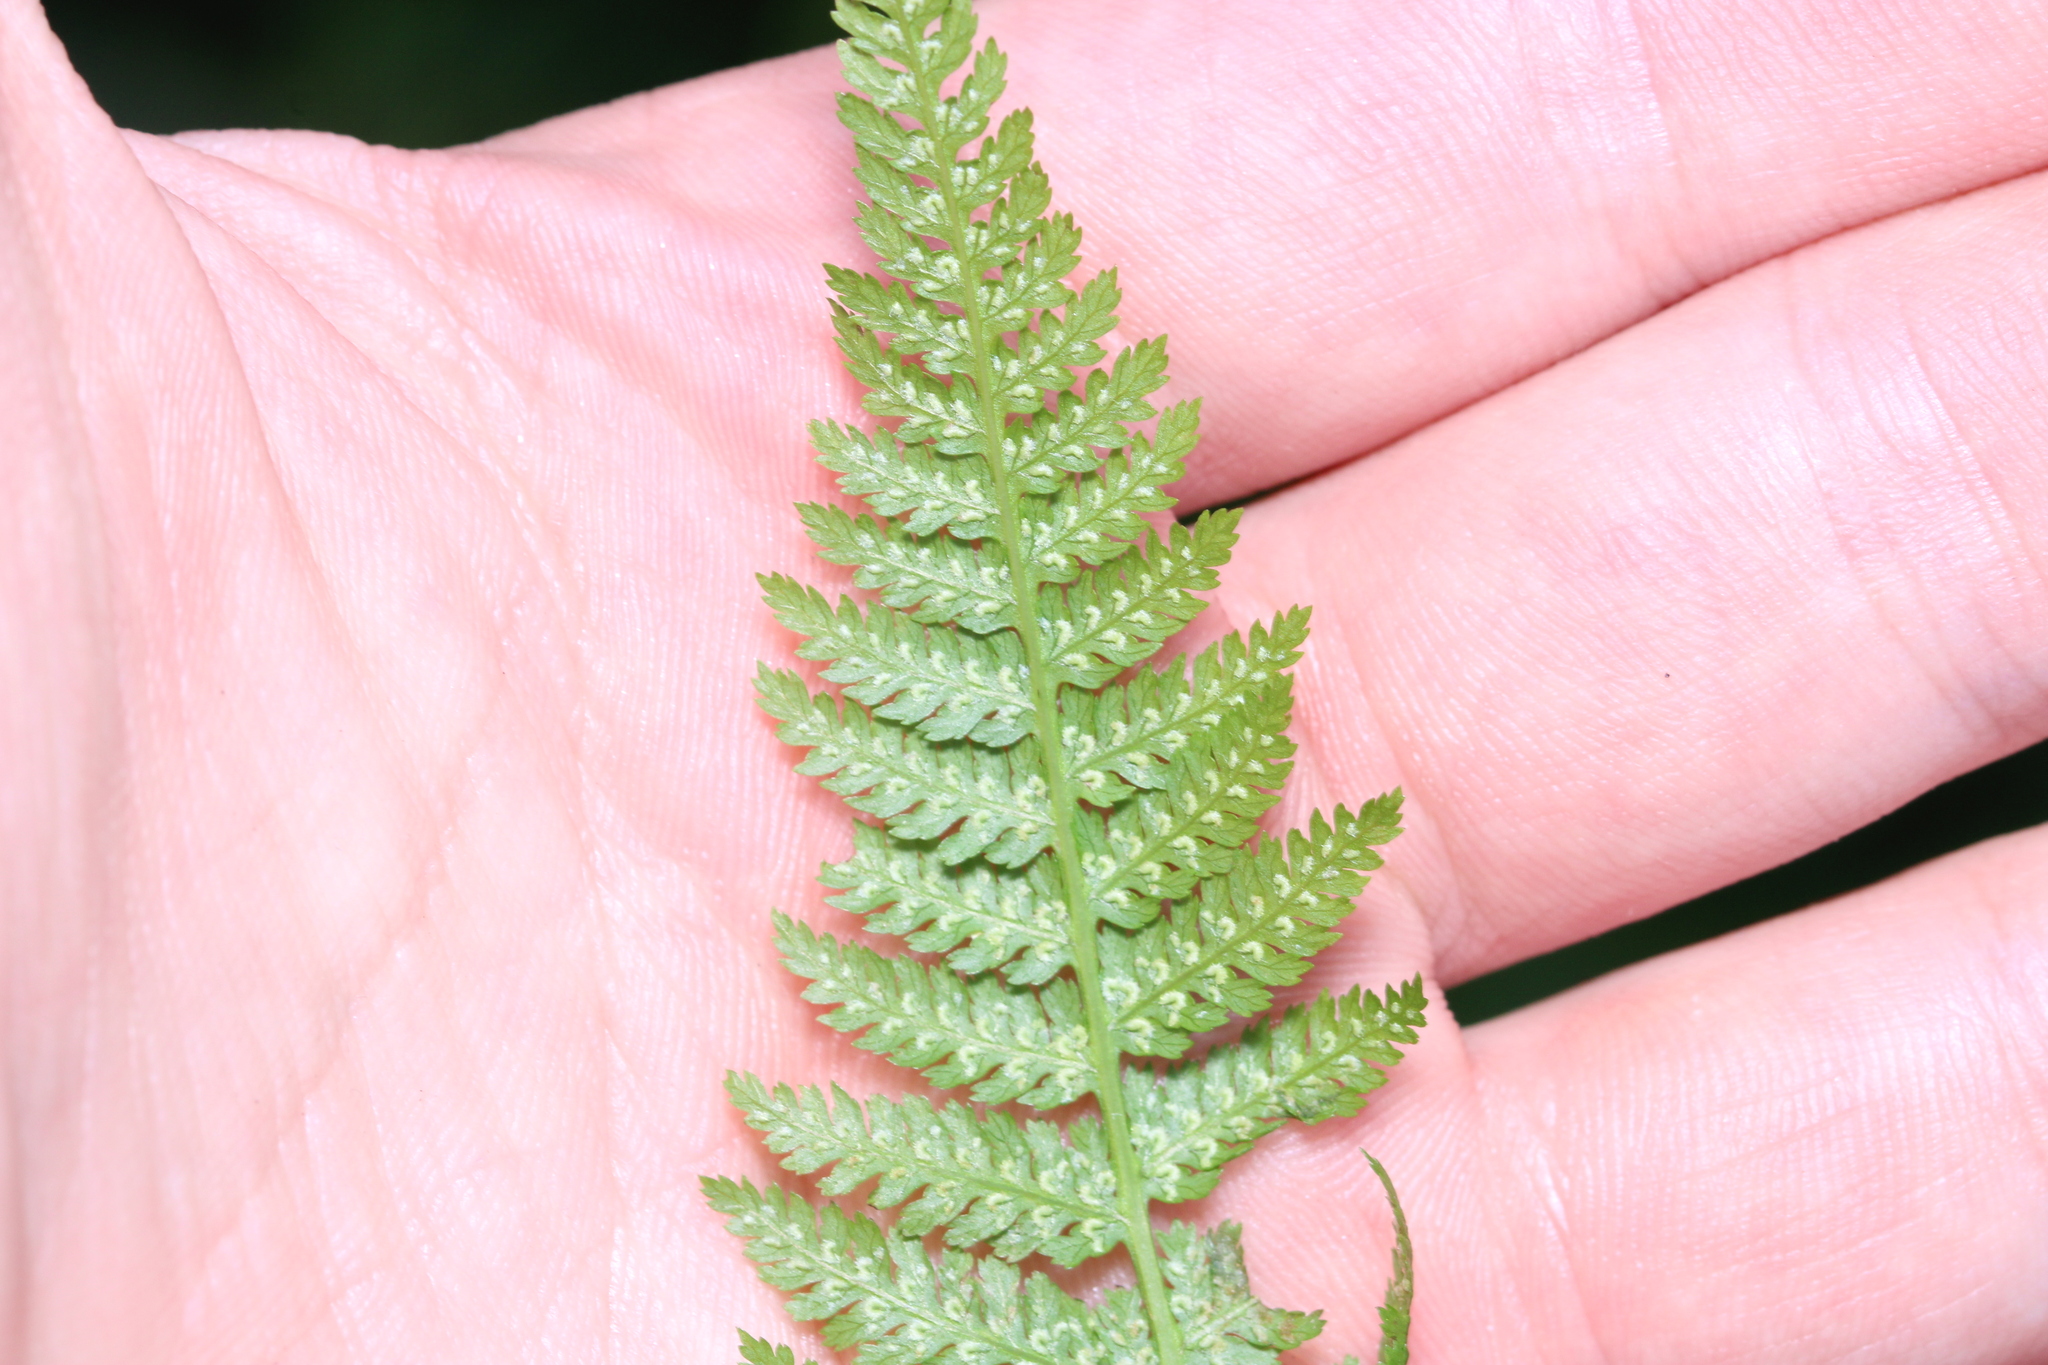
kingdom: Plantae
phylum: Tracheophyta
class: Polypodiopsida
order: Polypodiales
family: Athyriaceae
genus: Athyrium
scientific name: Athyrium filix-femina
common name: Lady fern
